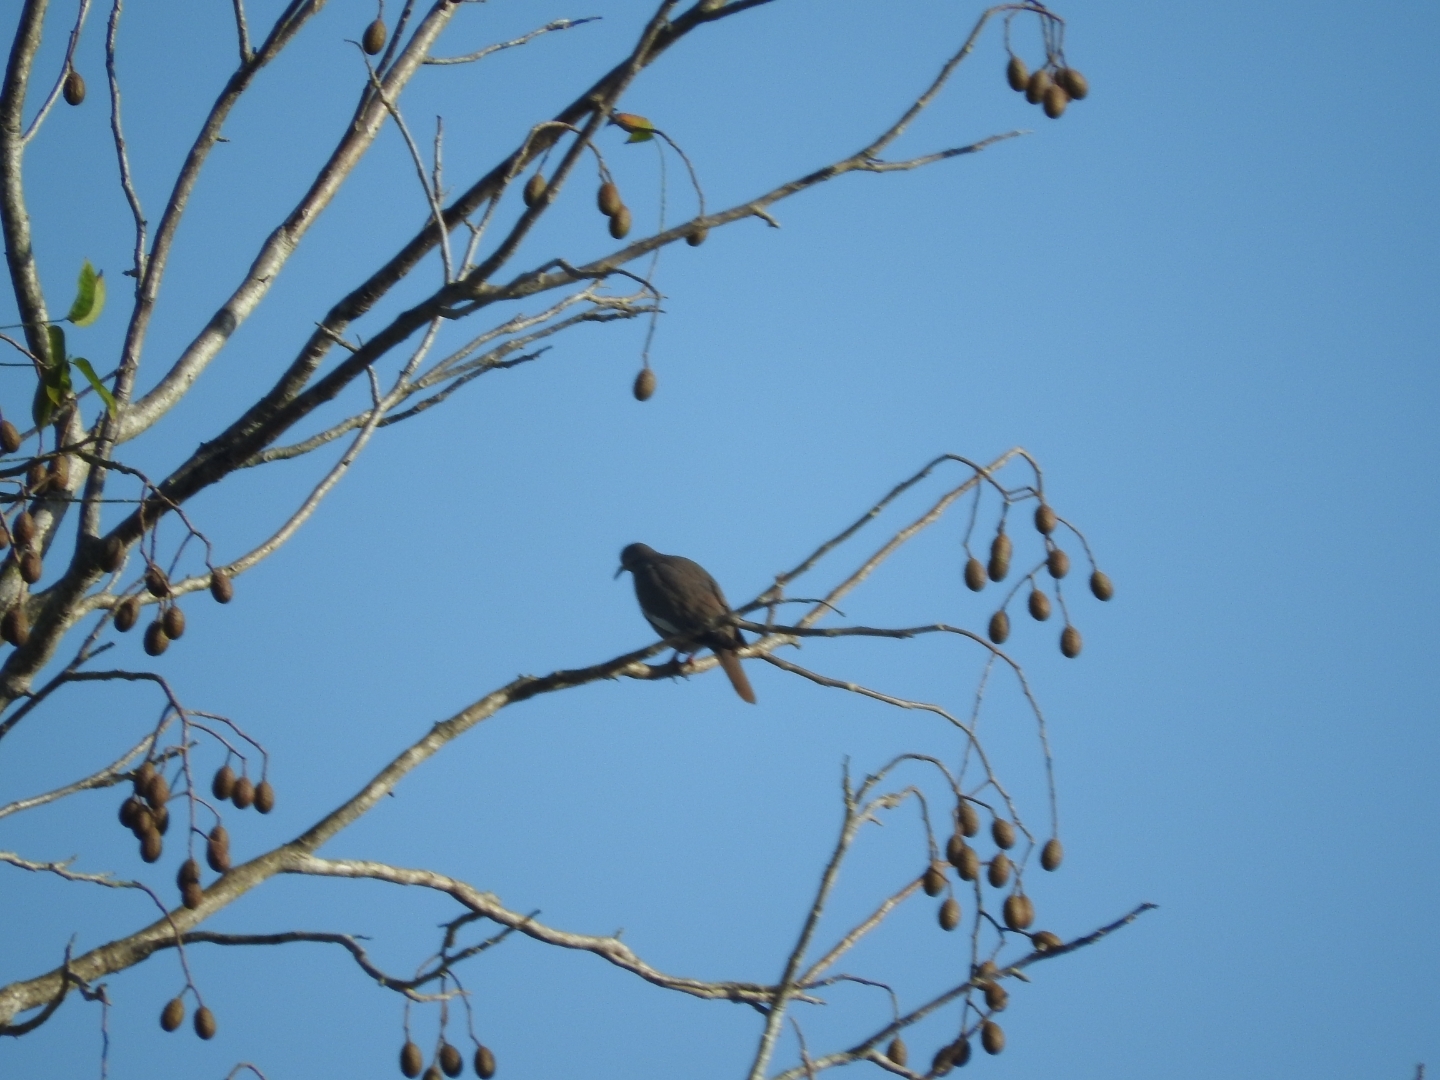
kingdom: Animalia
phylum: Chordata
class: Aves
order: Columbiformes
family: Columbidae
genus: Zenaida
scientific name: Zenaida asiatica
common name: White-winged dove
